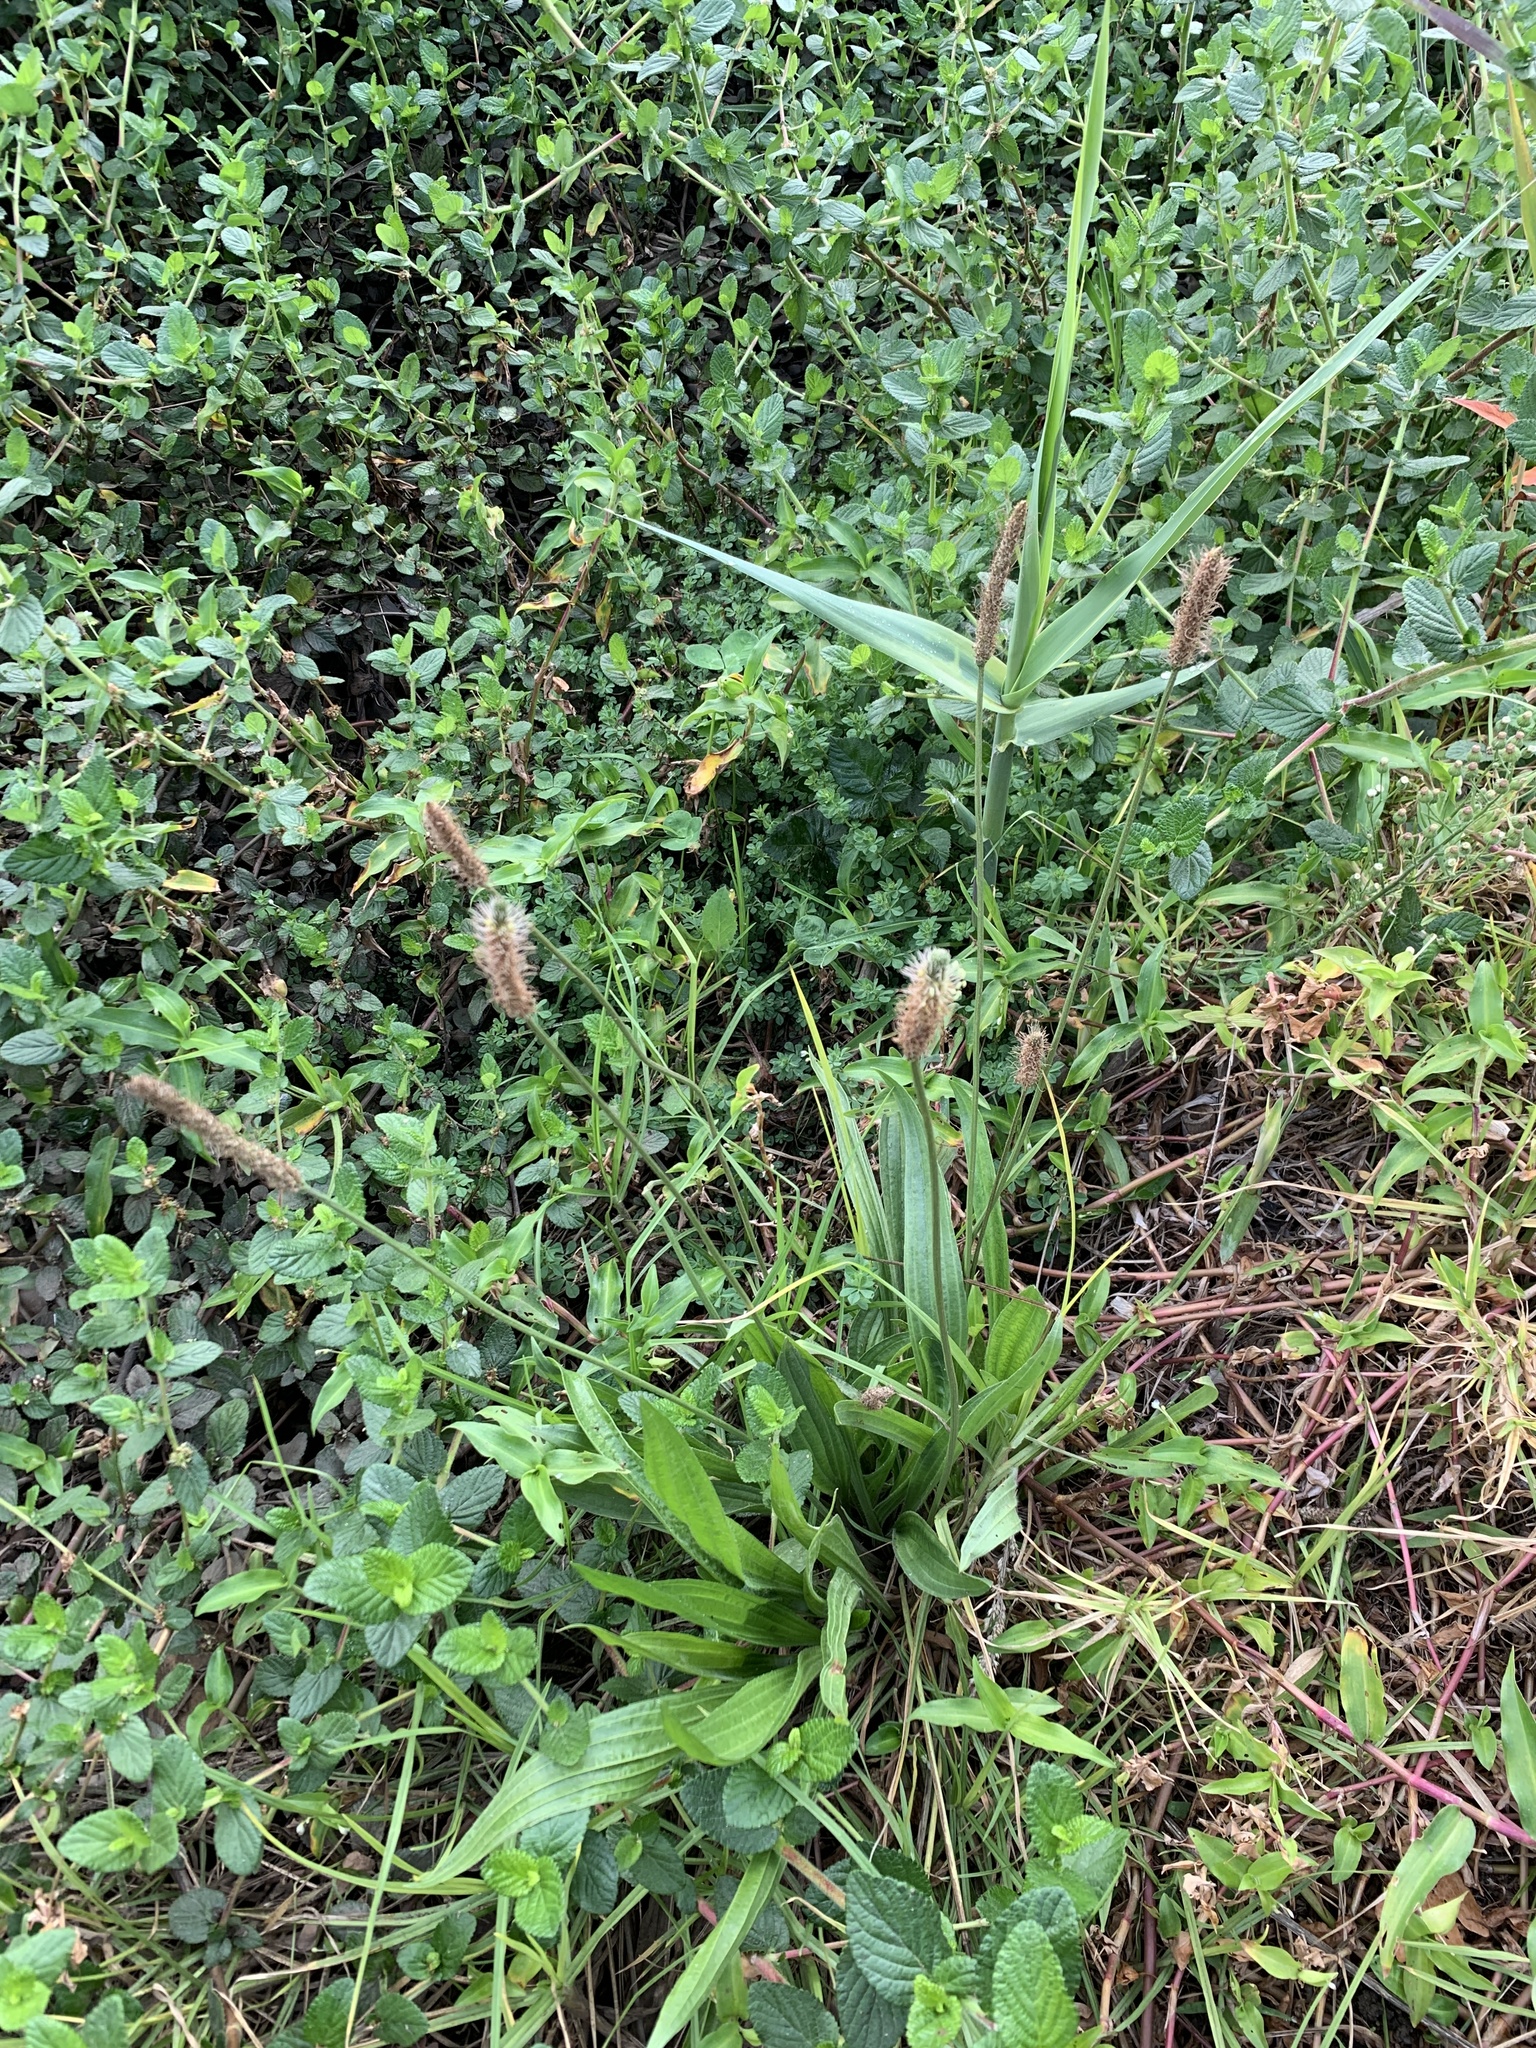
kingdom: Plantae
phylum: Tracheophyta
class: Magnoliopsida
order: Lamiales
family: Plantaginaceae
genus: Plantago
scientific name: Plantago lanceolata
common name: Ribwort plantain
